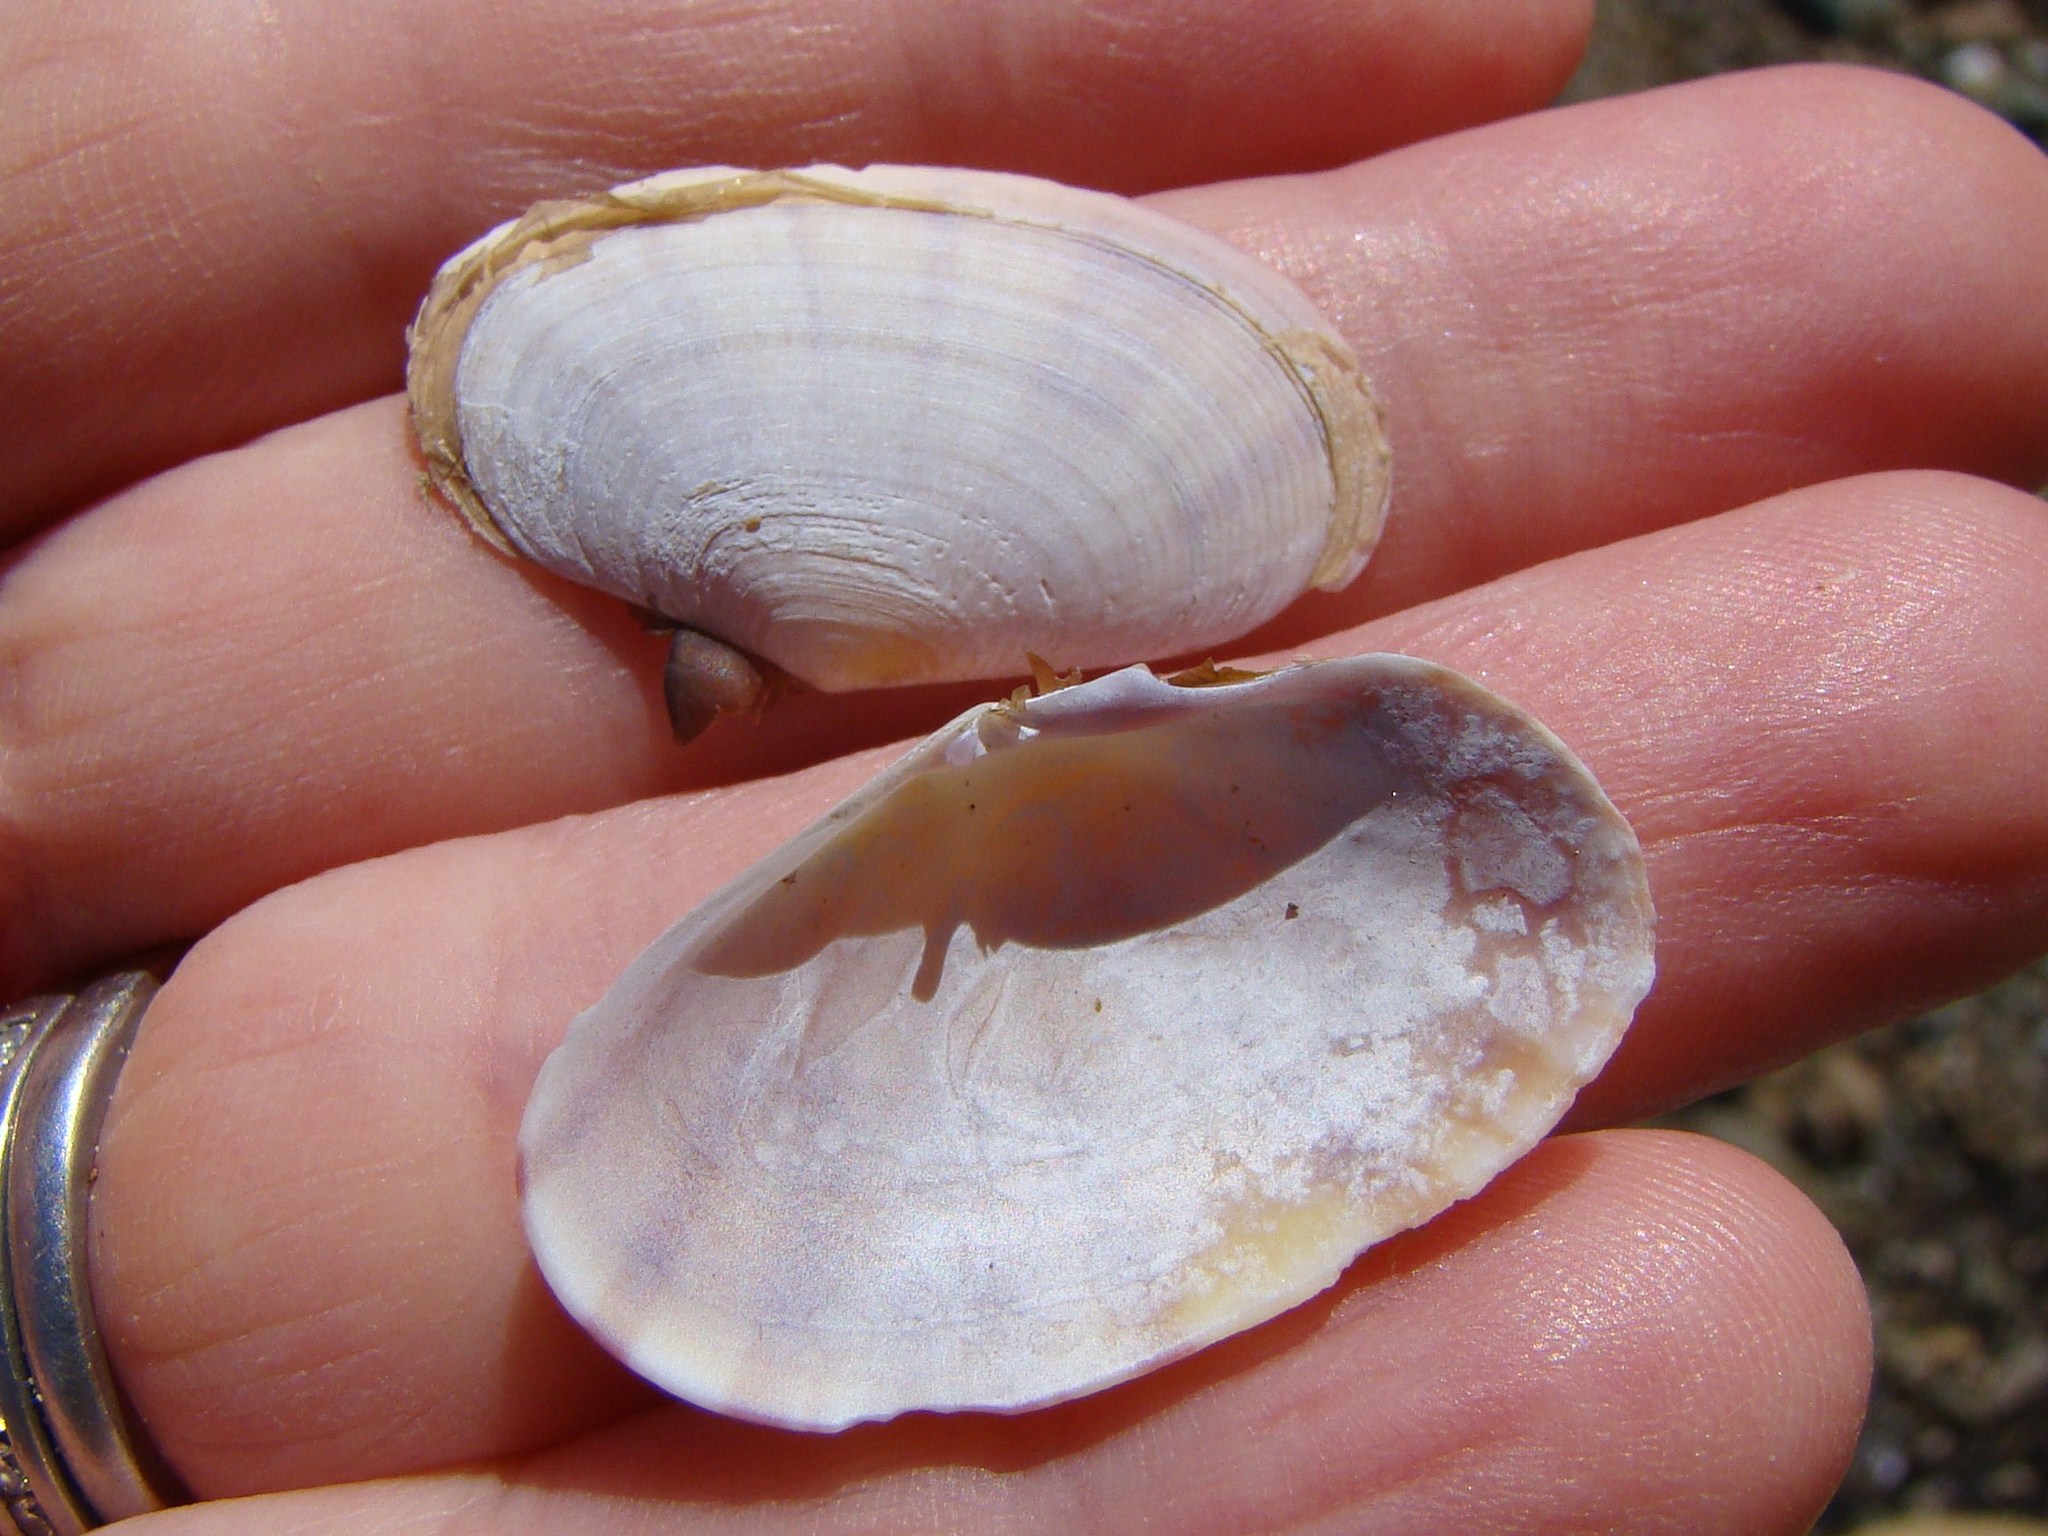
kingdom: Animalia
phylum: Mollusca
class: Bivalvia
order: Cardiida
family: Psammobiidae
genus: Gari
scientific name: Gari stangeri
